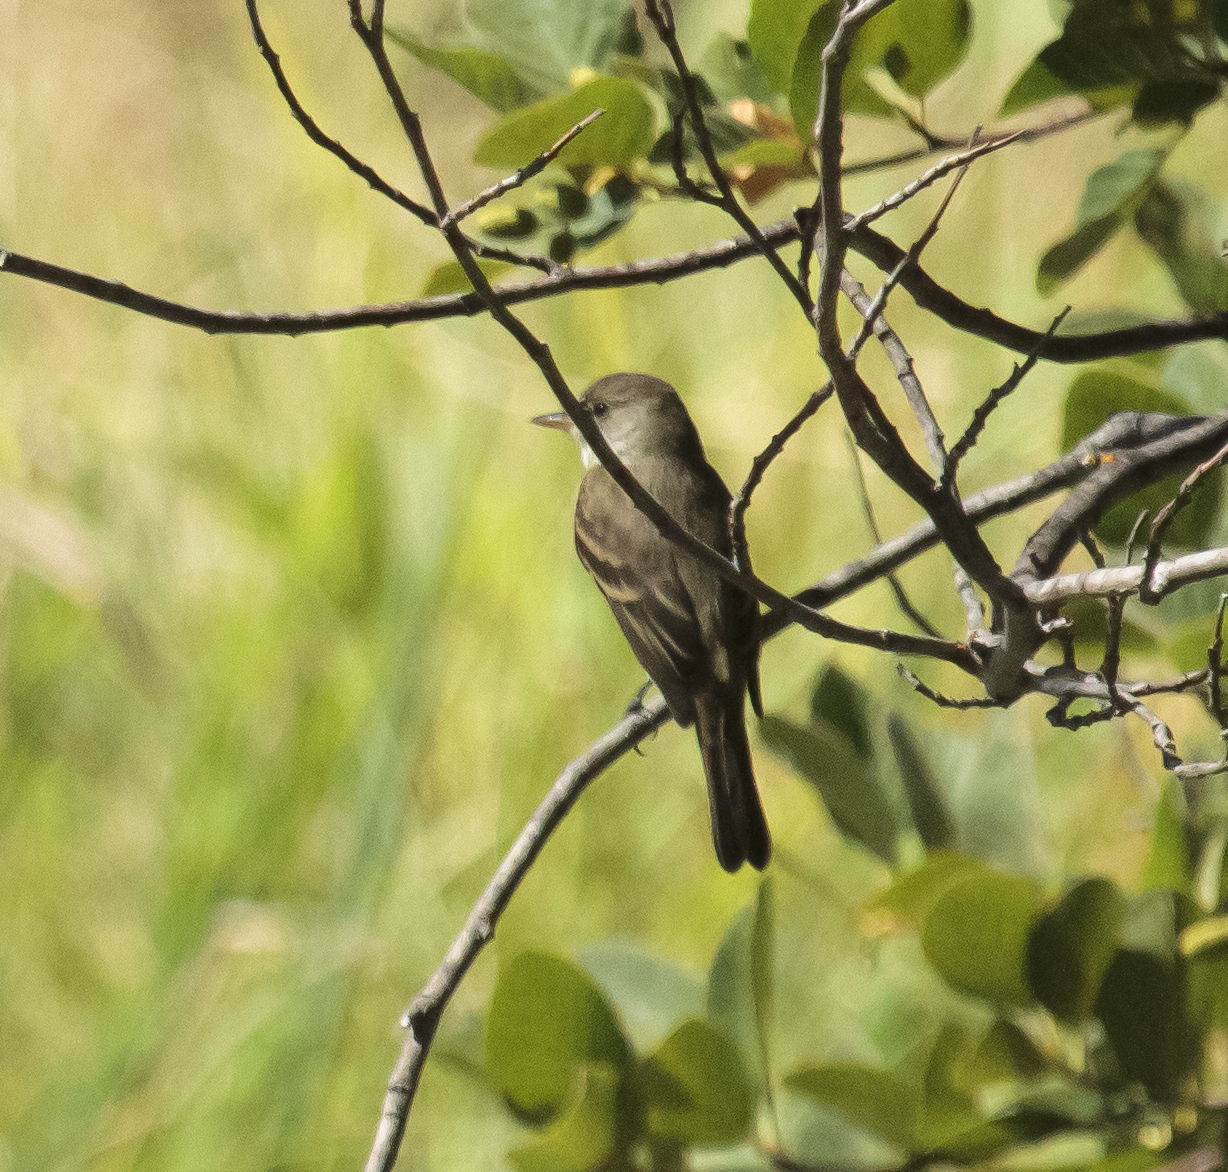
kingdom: Animalia
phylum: Chordata
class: Aves
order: Passeriformes
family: Tyrannidae
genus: Empidonax
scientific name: Empidonax traillii
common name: Willow flycatcher
